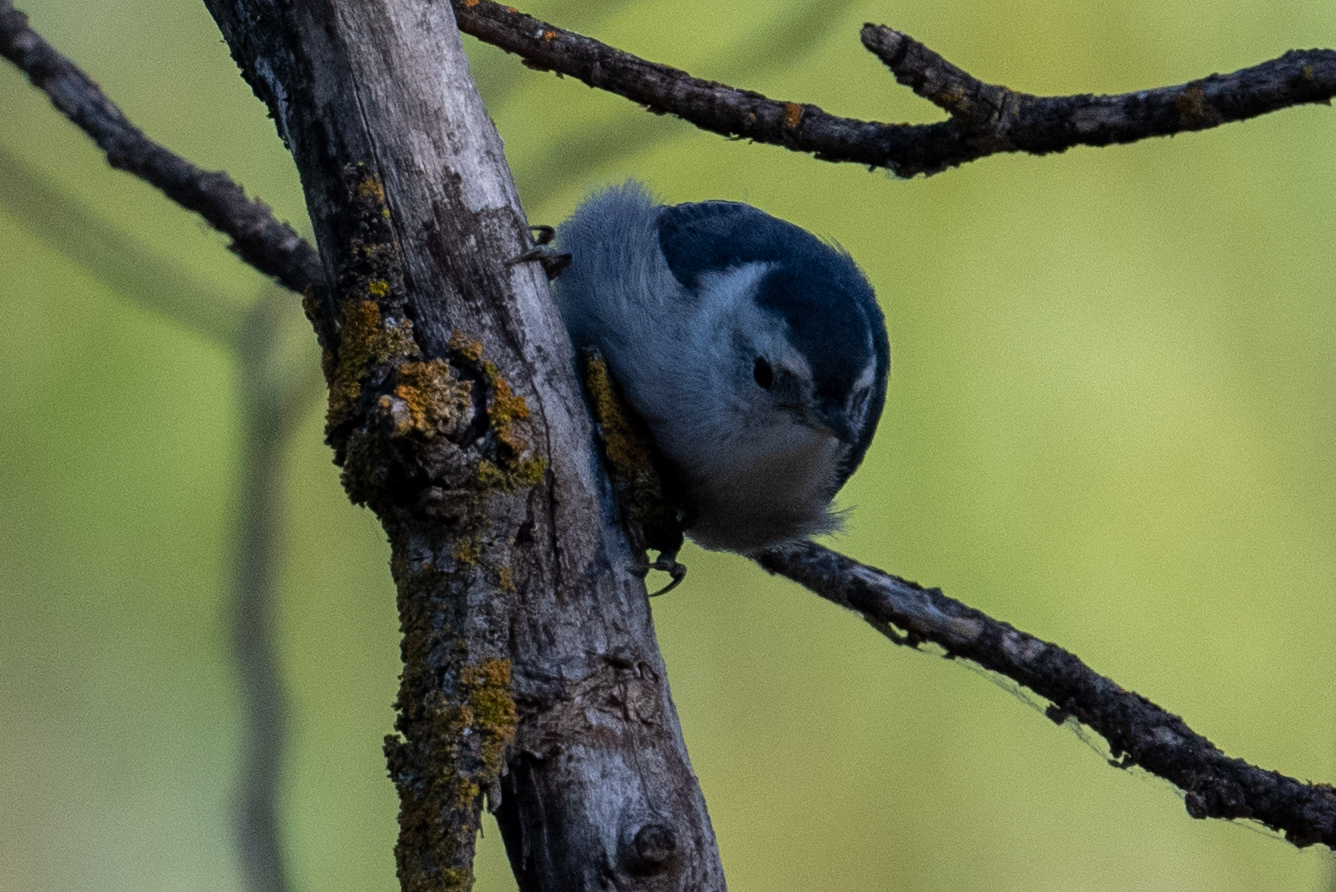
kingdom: Animalia
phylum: Chordata
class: Aves
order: Passeriformes
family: Tyrannidae
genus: Sayornis
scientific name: Sayornis nigricans
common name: Black phoebe
